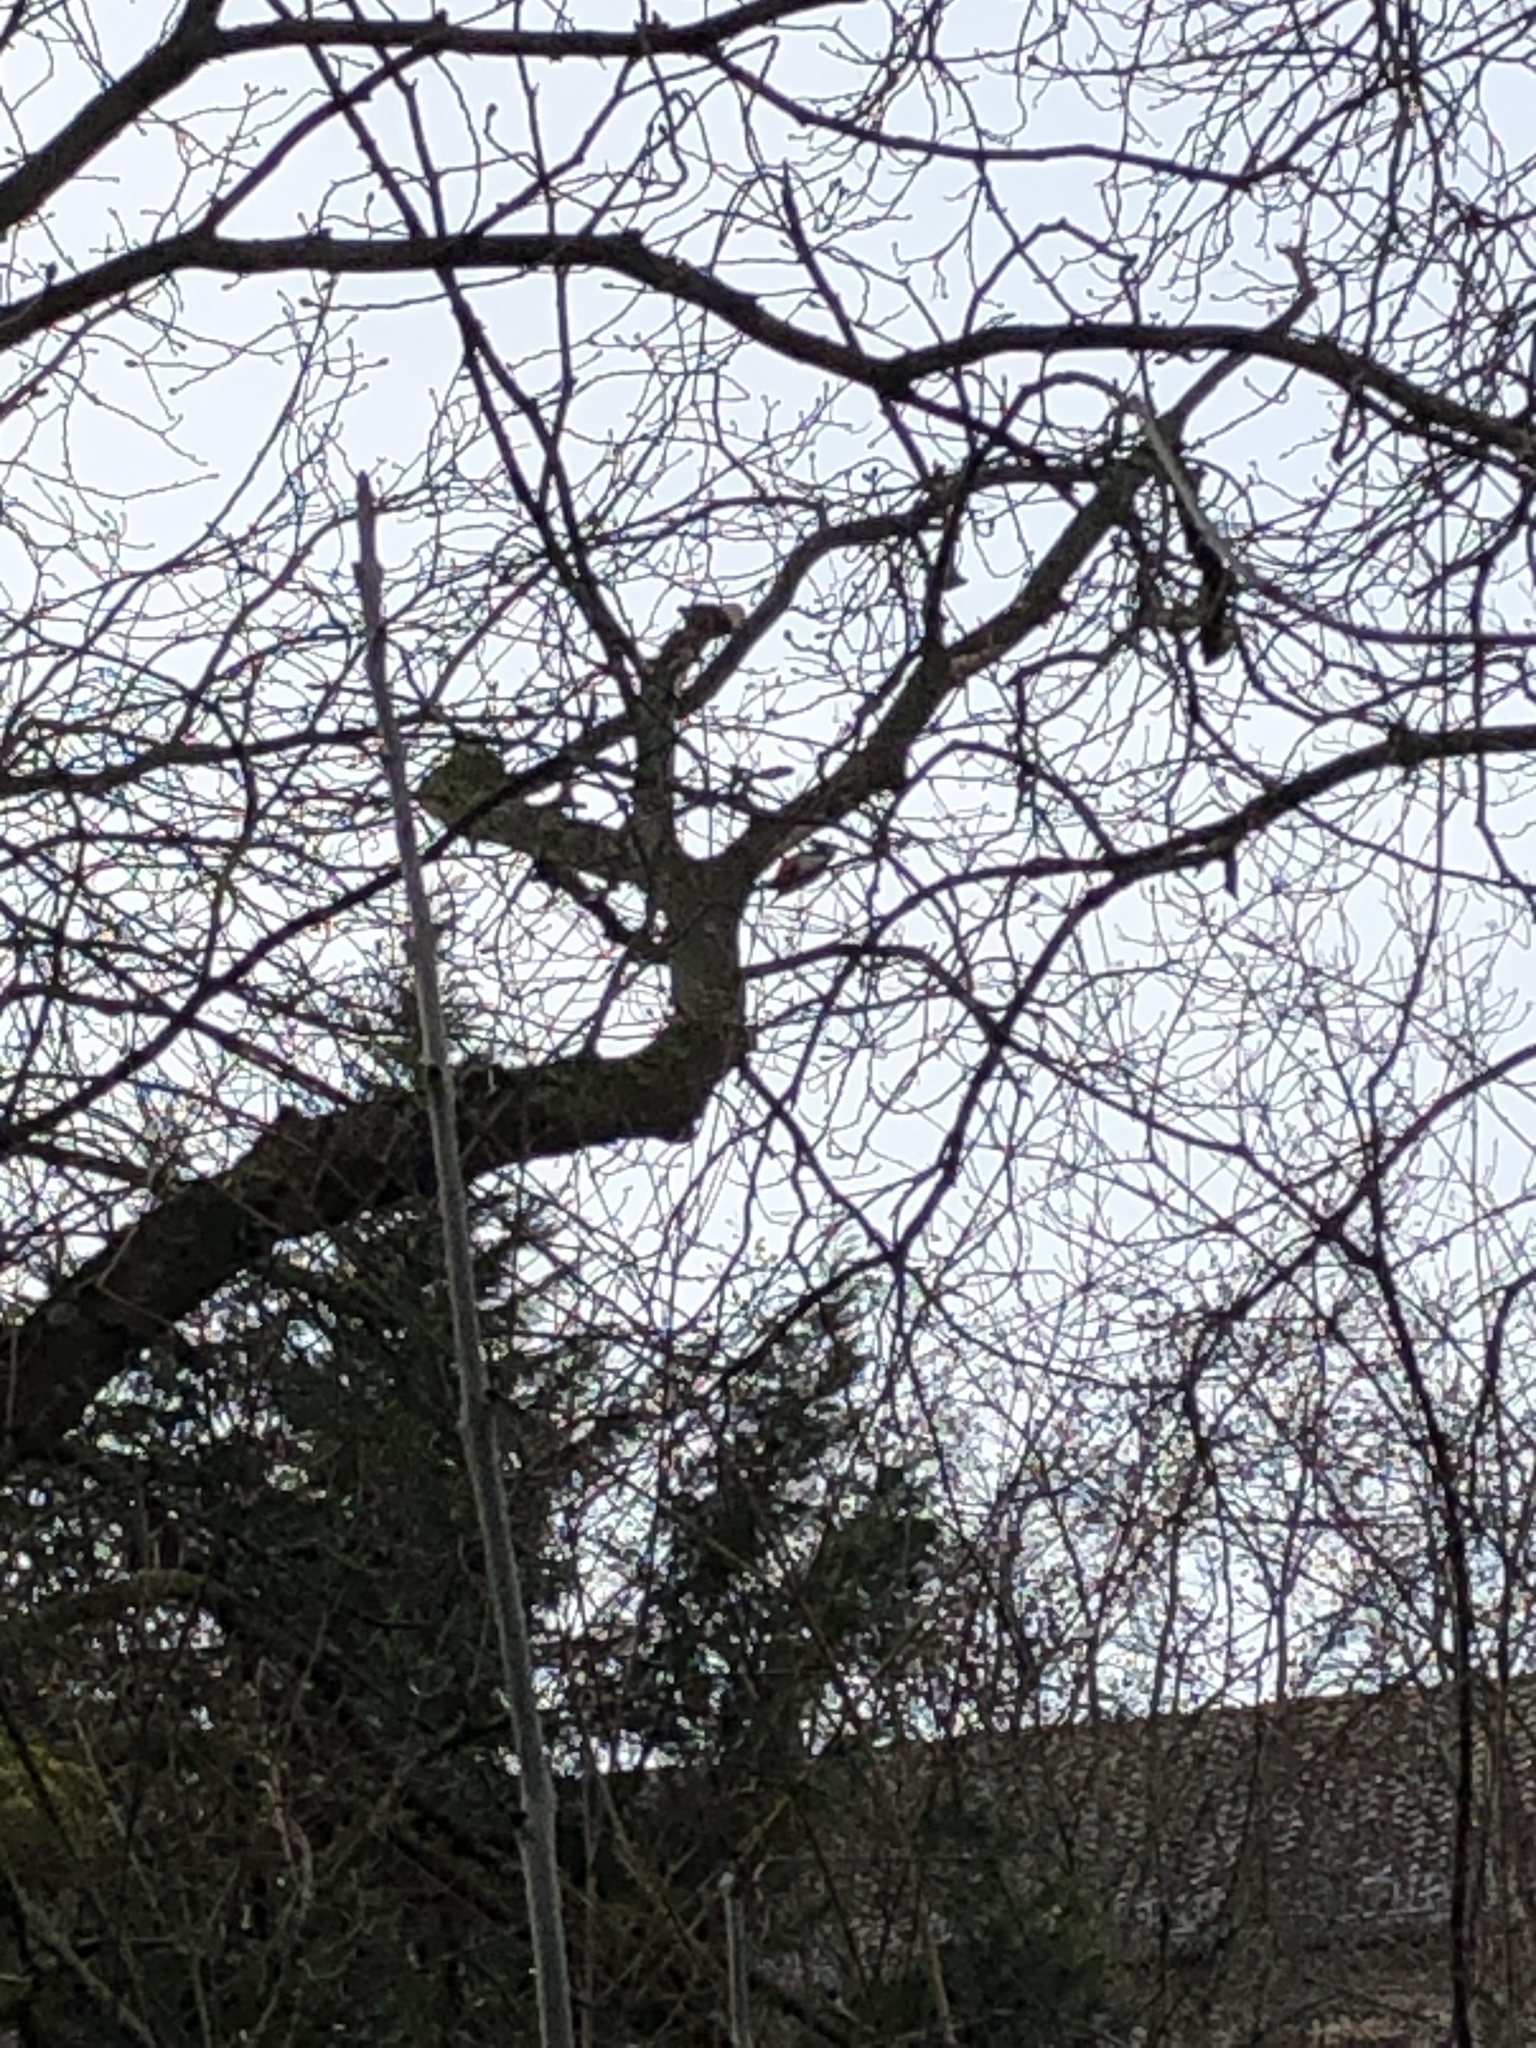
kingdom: Animalia
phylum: Chordata
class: Aves
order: Piciformes
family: Picidae
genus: Dendrocopos
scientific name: Dendrocopos major
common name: Great spotted woodpecker
